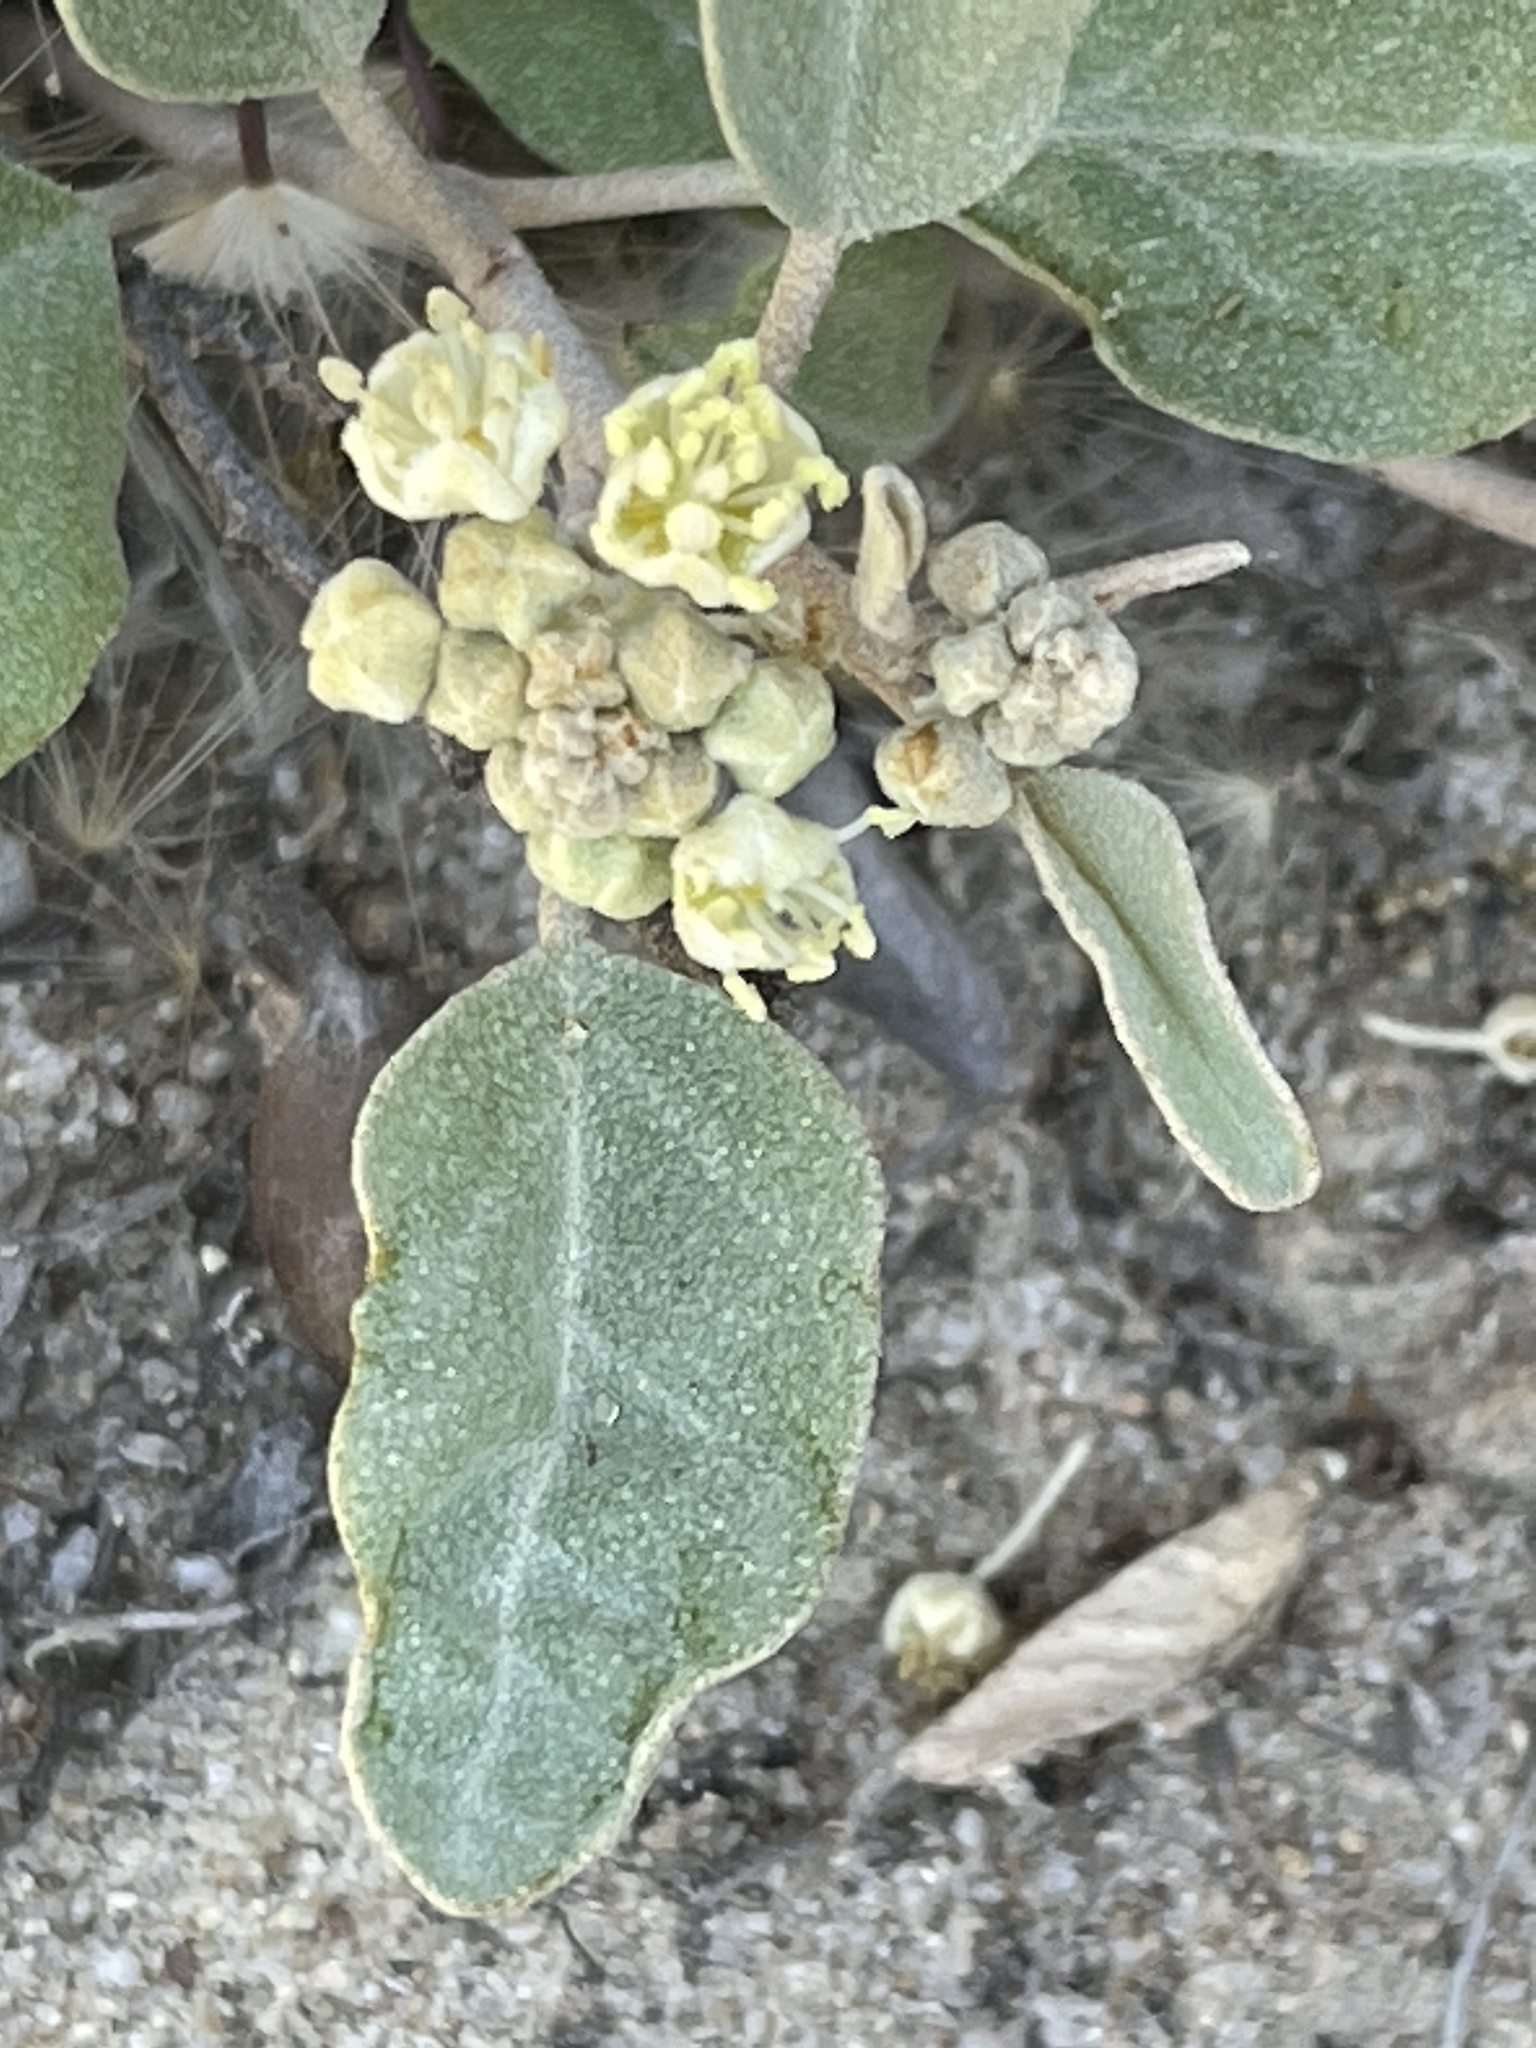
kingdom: Plantae
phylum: Tracheophyta
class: Magnoliopsida
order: Malpighiales
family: Euphorbiaceae
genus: Croton
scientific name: Croton californicus
